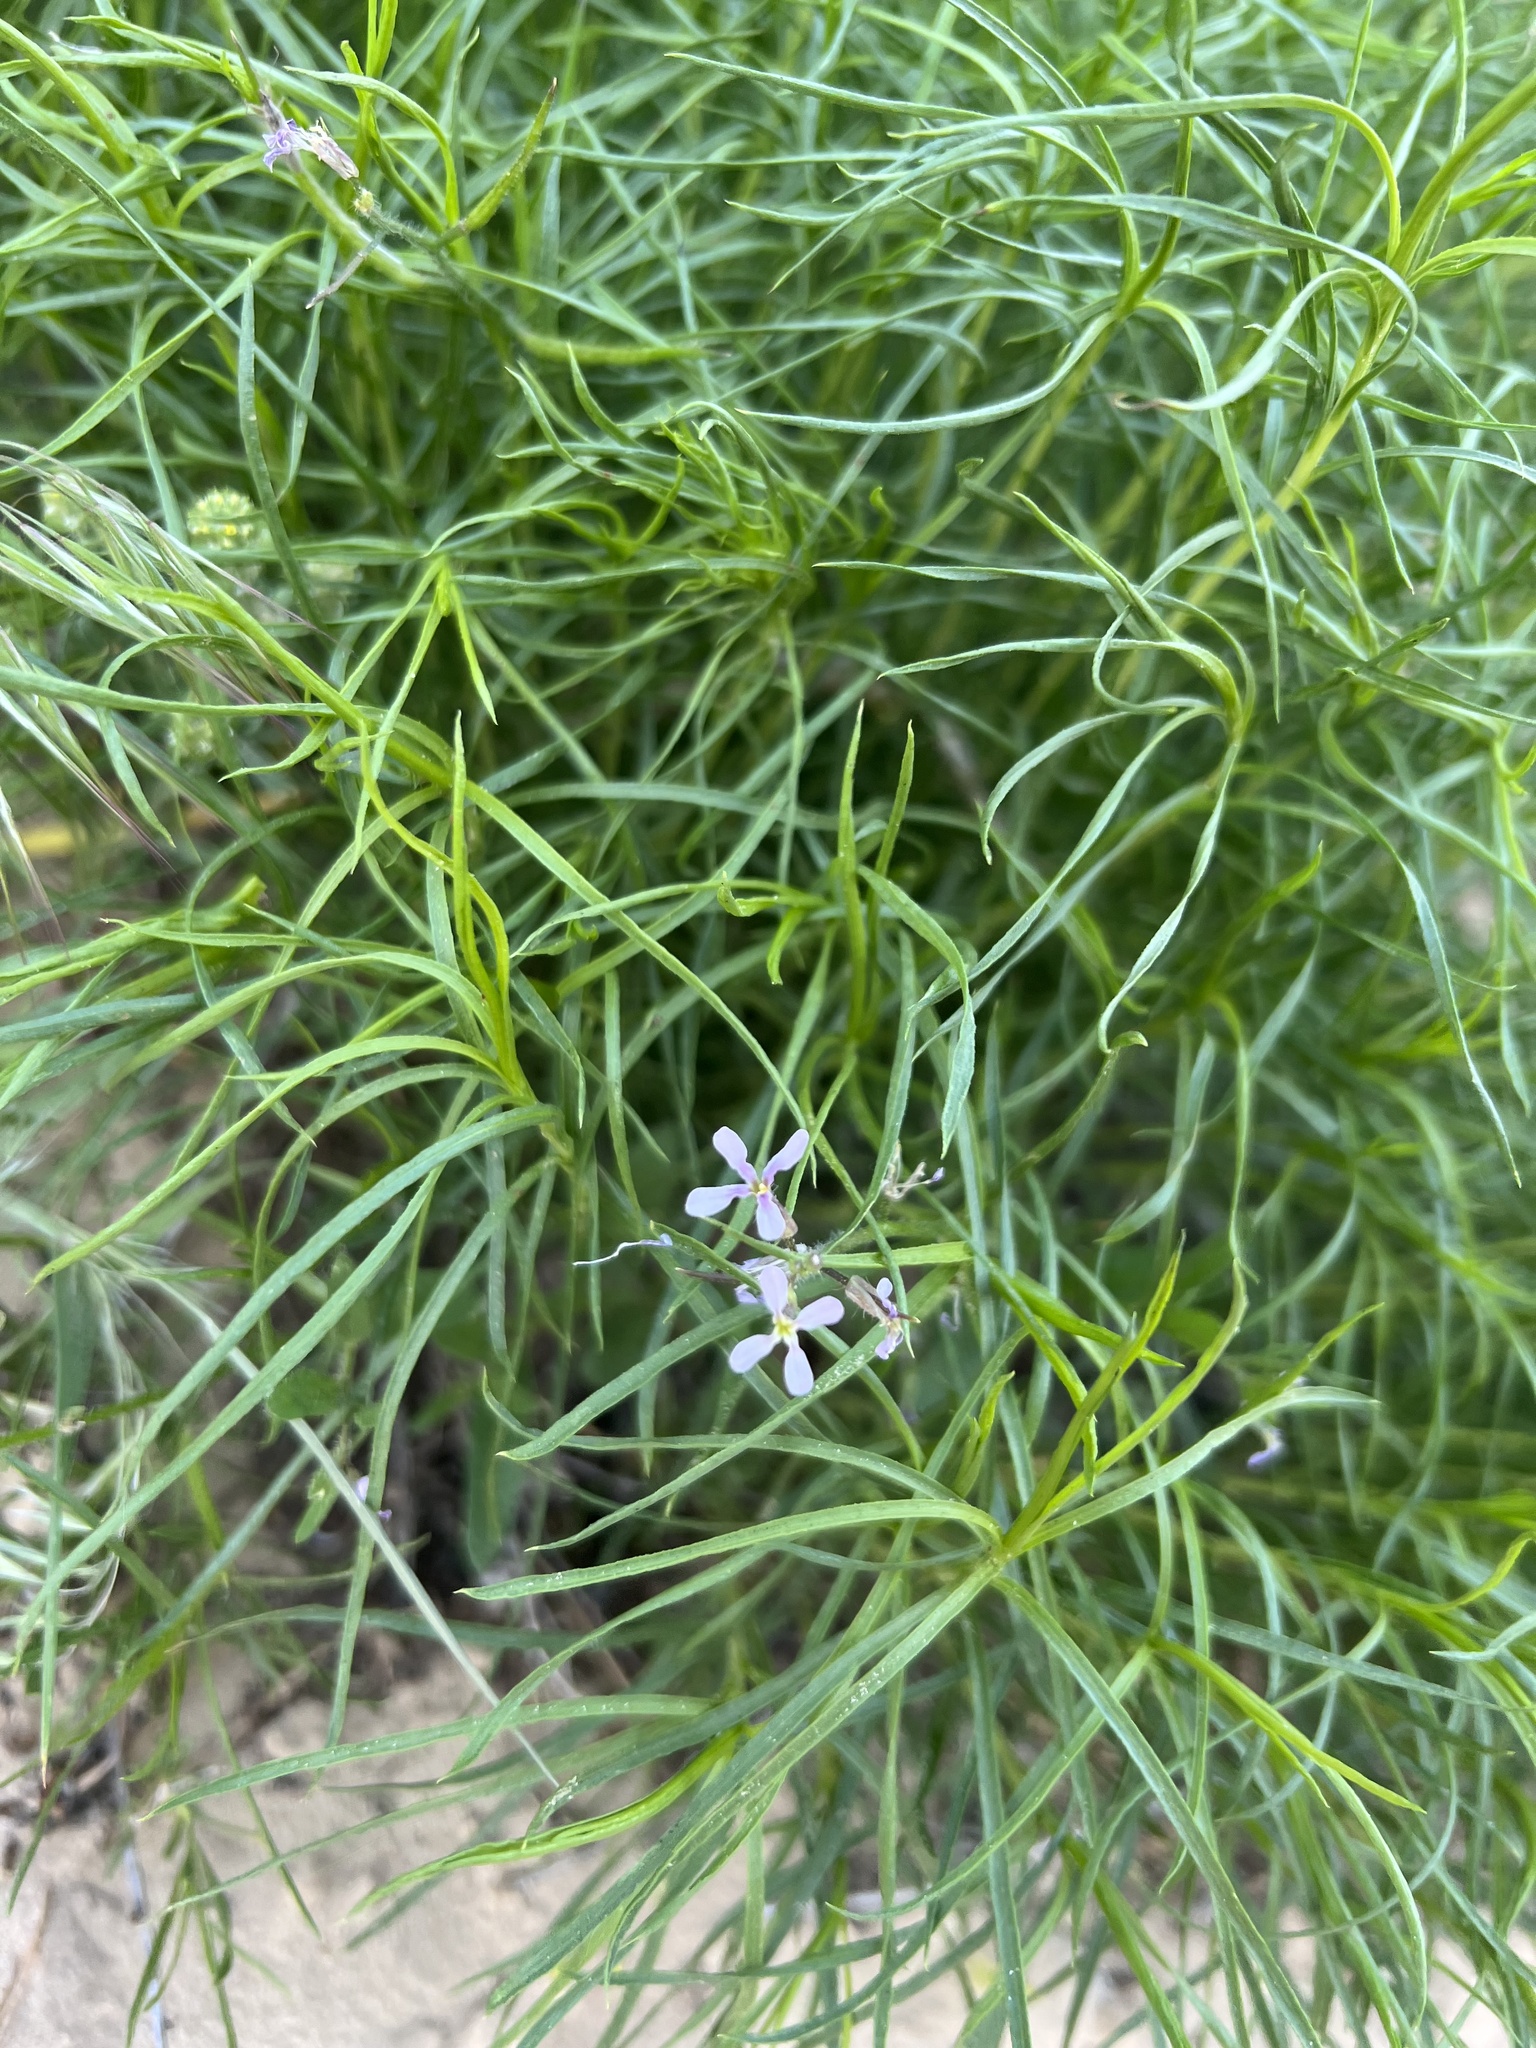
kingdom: Plantae
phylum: Tracheophyta
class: Magnoliopsida
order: Brassicales
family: Brassicaceae
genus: Chorispora
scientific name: Chorispora tenella
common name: Crossflower
